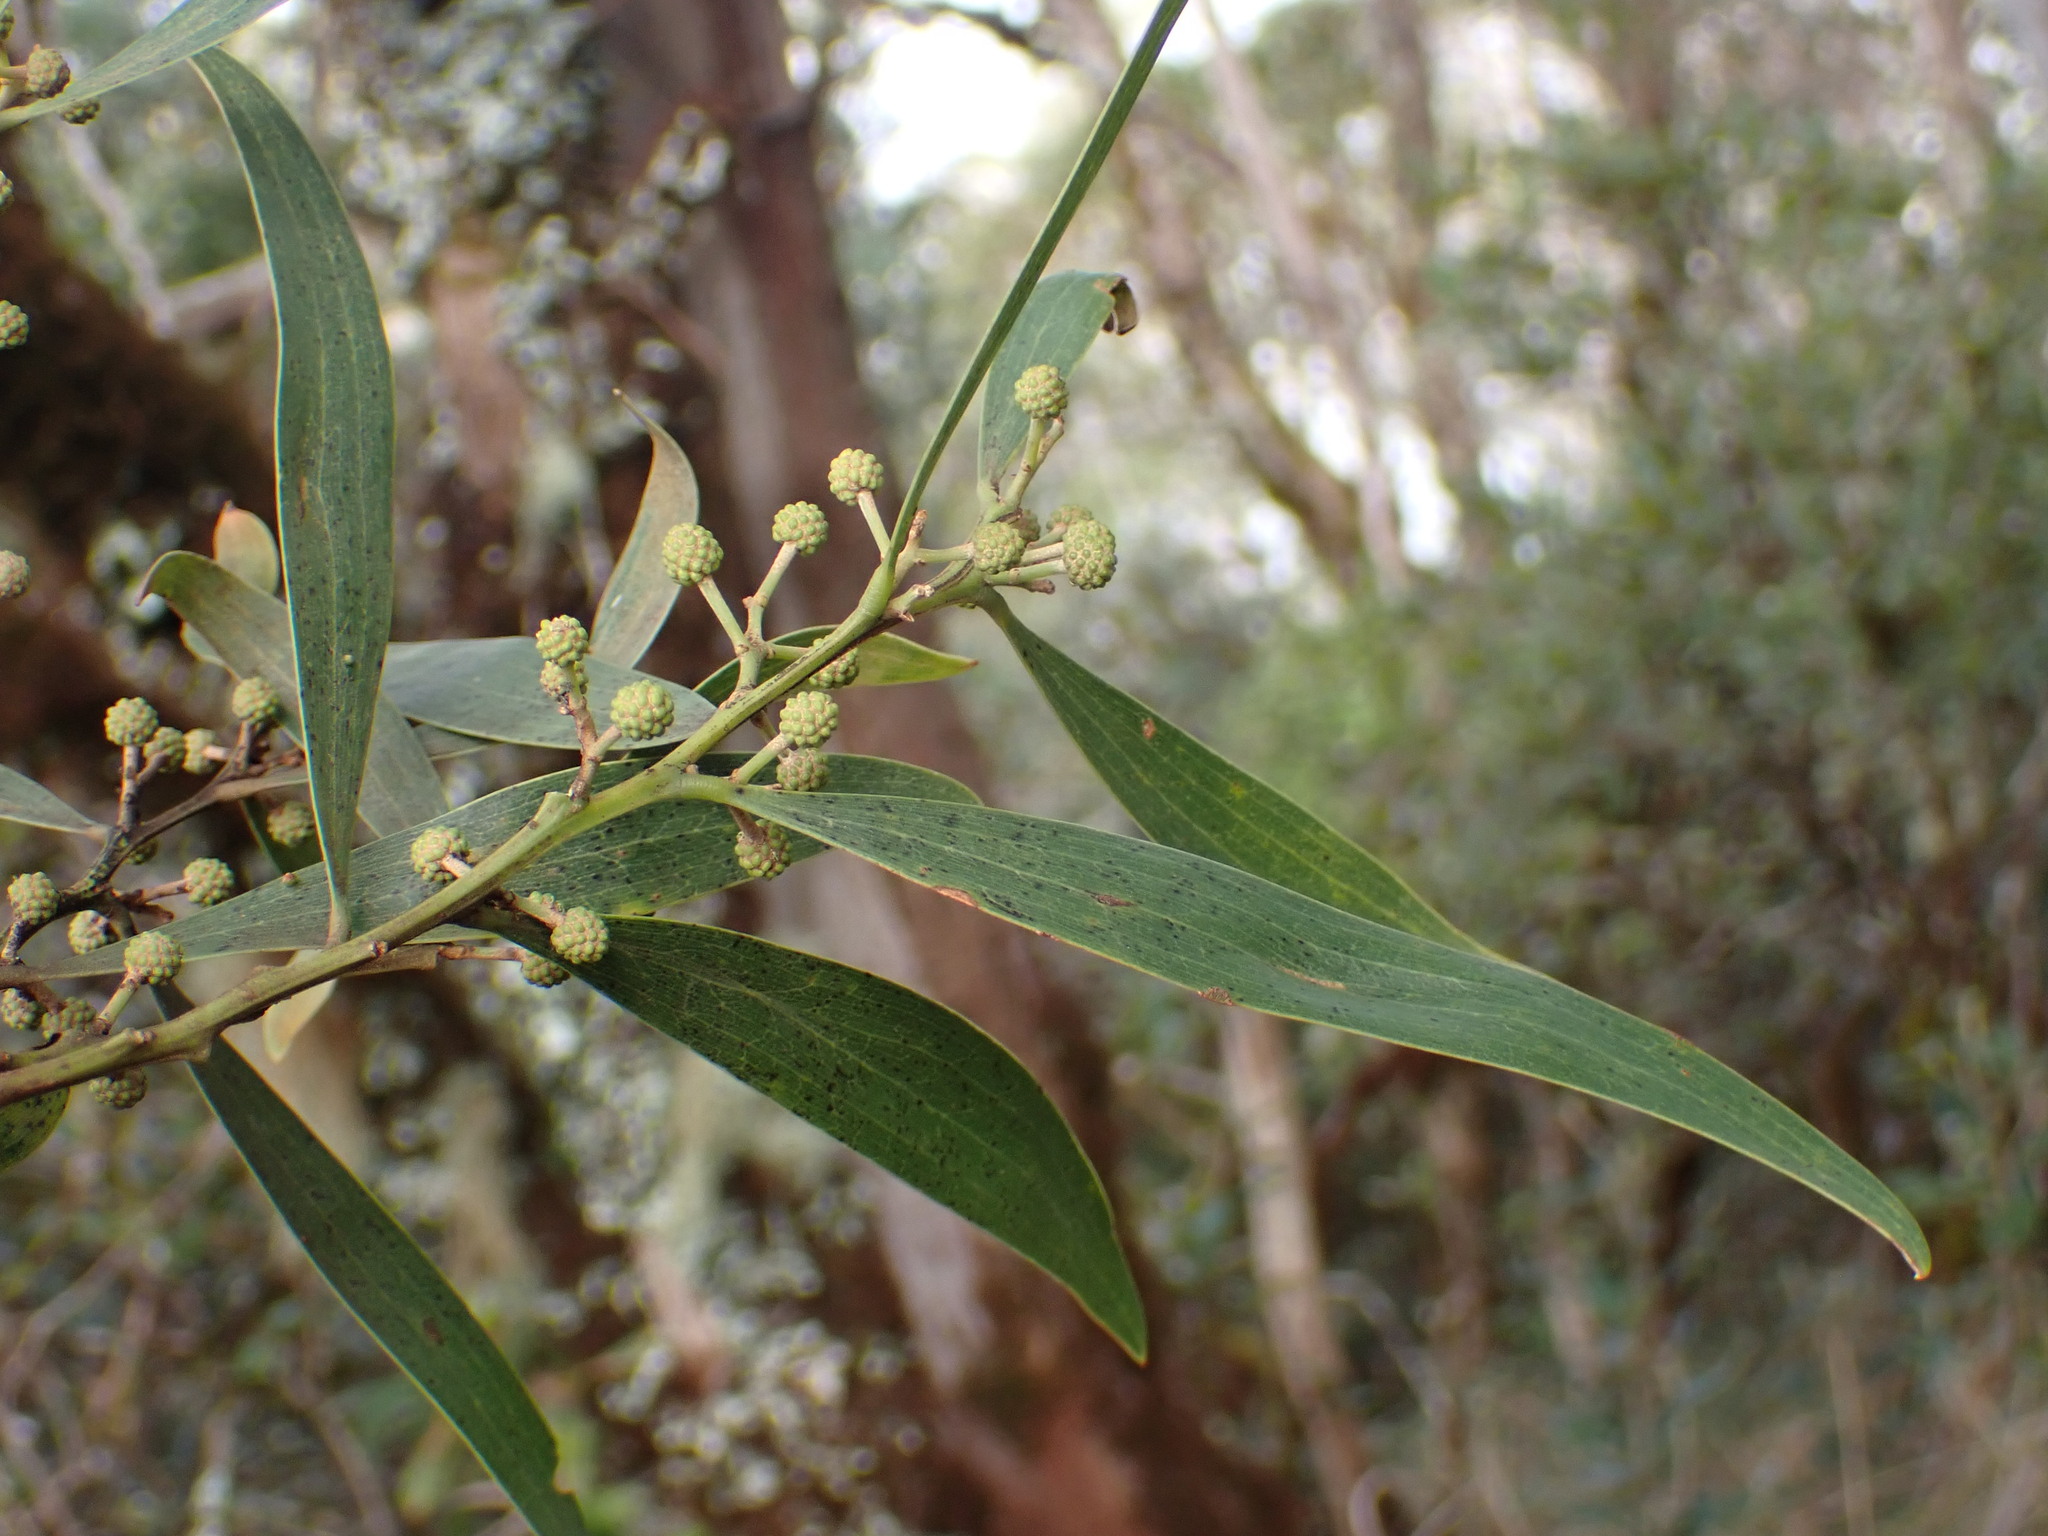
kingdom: Plantae
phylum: Tracheophyta
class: Magnoliopsida
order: Fabales
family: Fabaceae
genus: Acacia
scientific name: Acacia melanoxylon
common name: Blackwood
